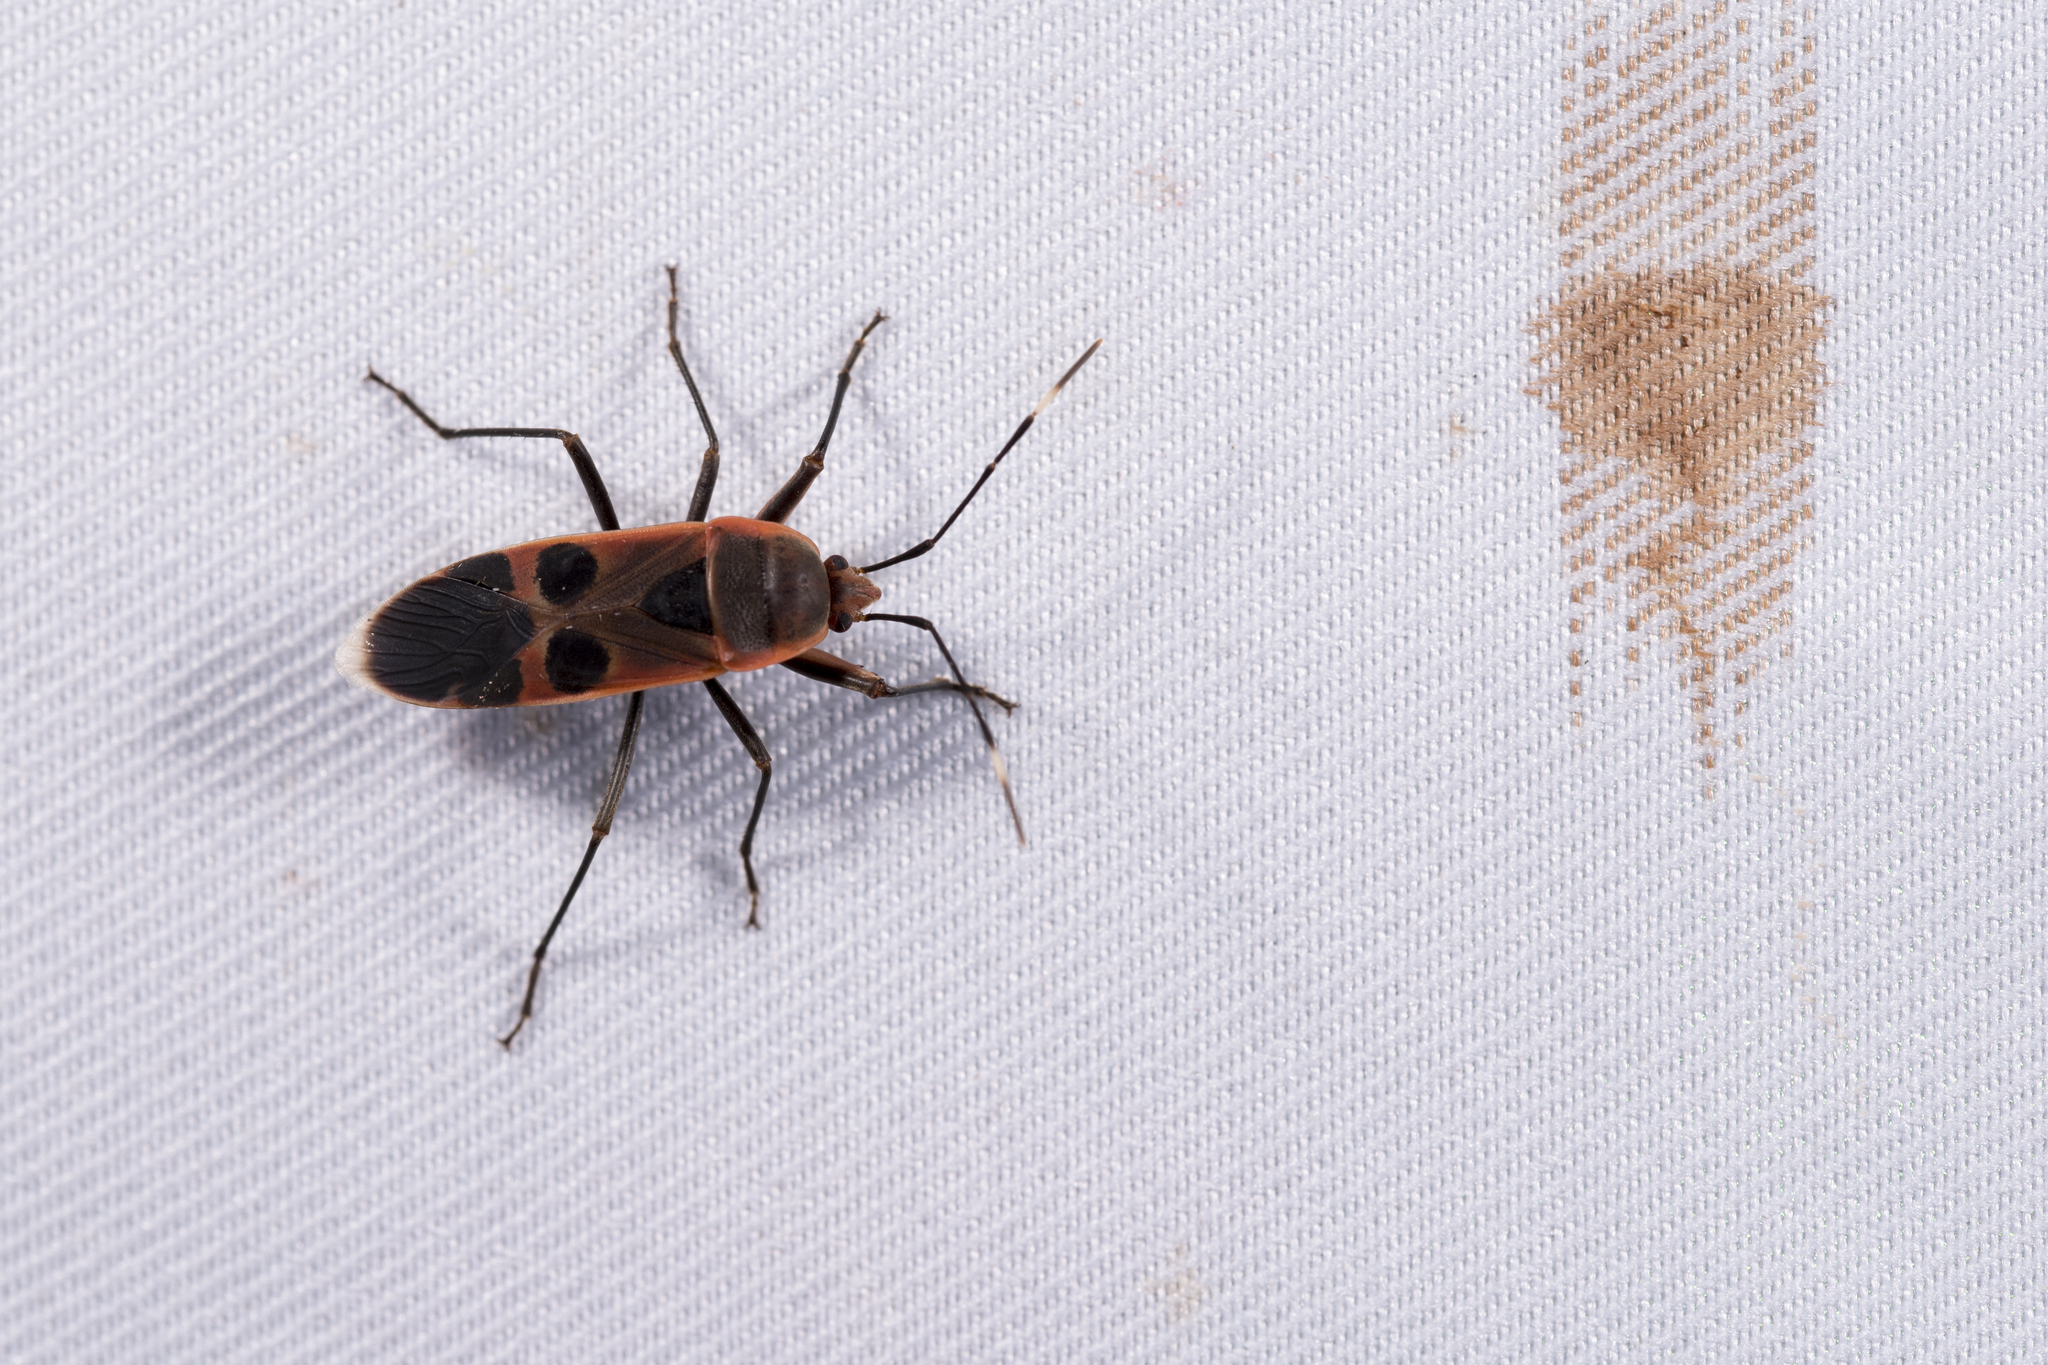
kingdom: Animalia
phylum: Arthropoda
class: Insecta
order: Hemiptera
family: Largidae
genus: Physopelta
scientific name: Physopelta gutta
